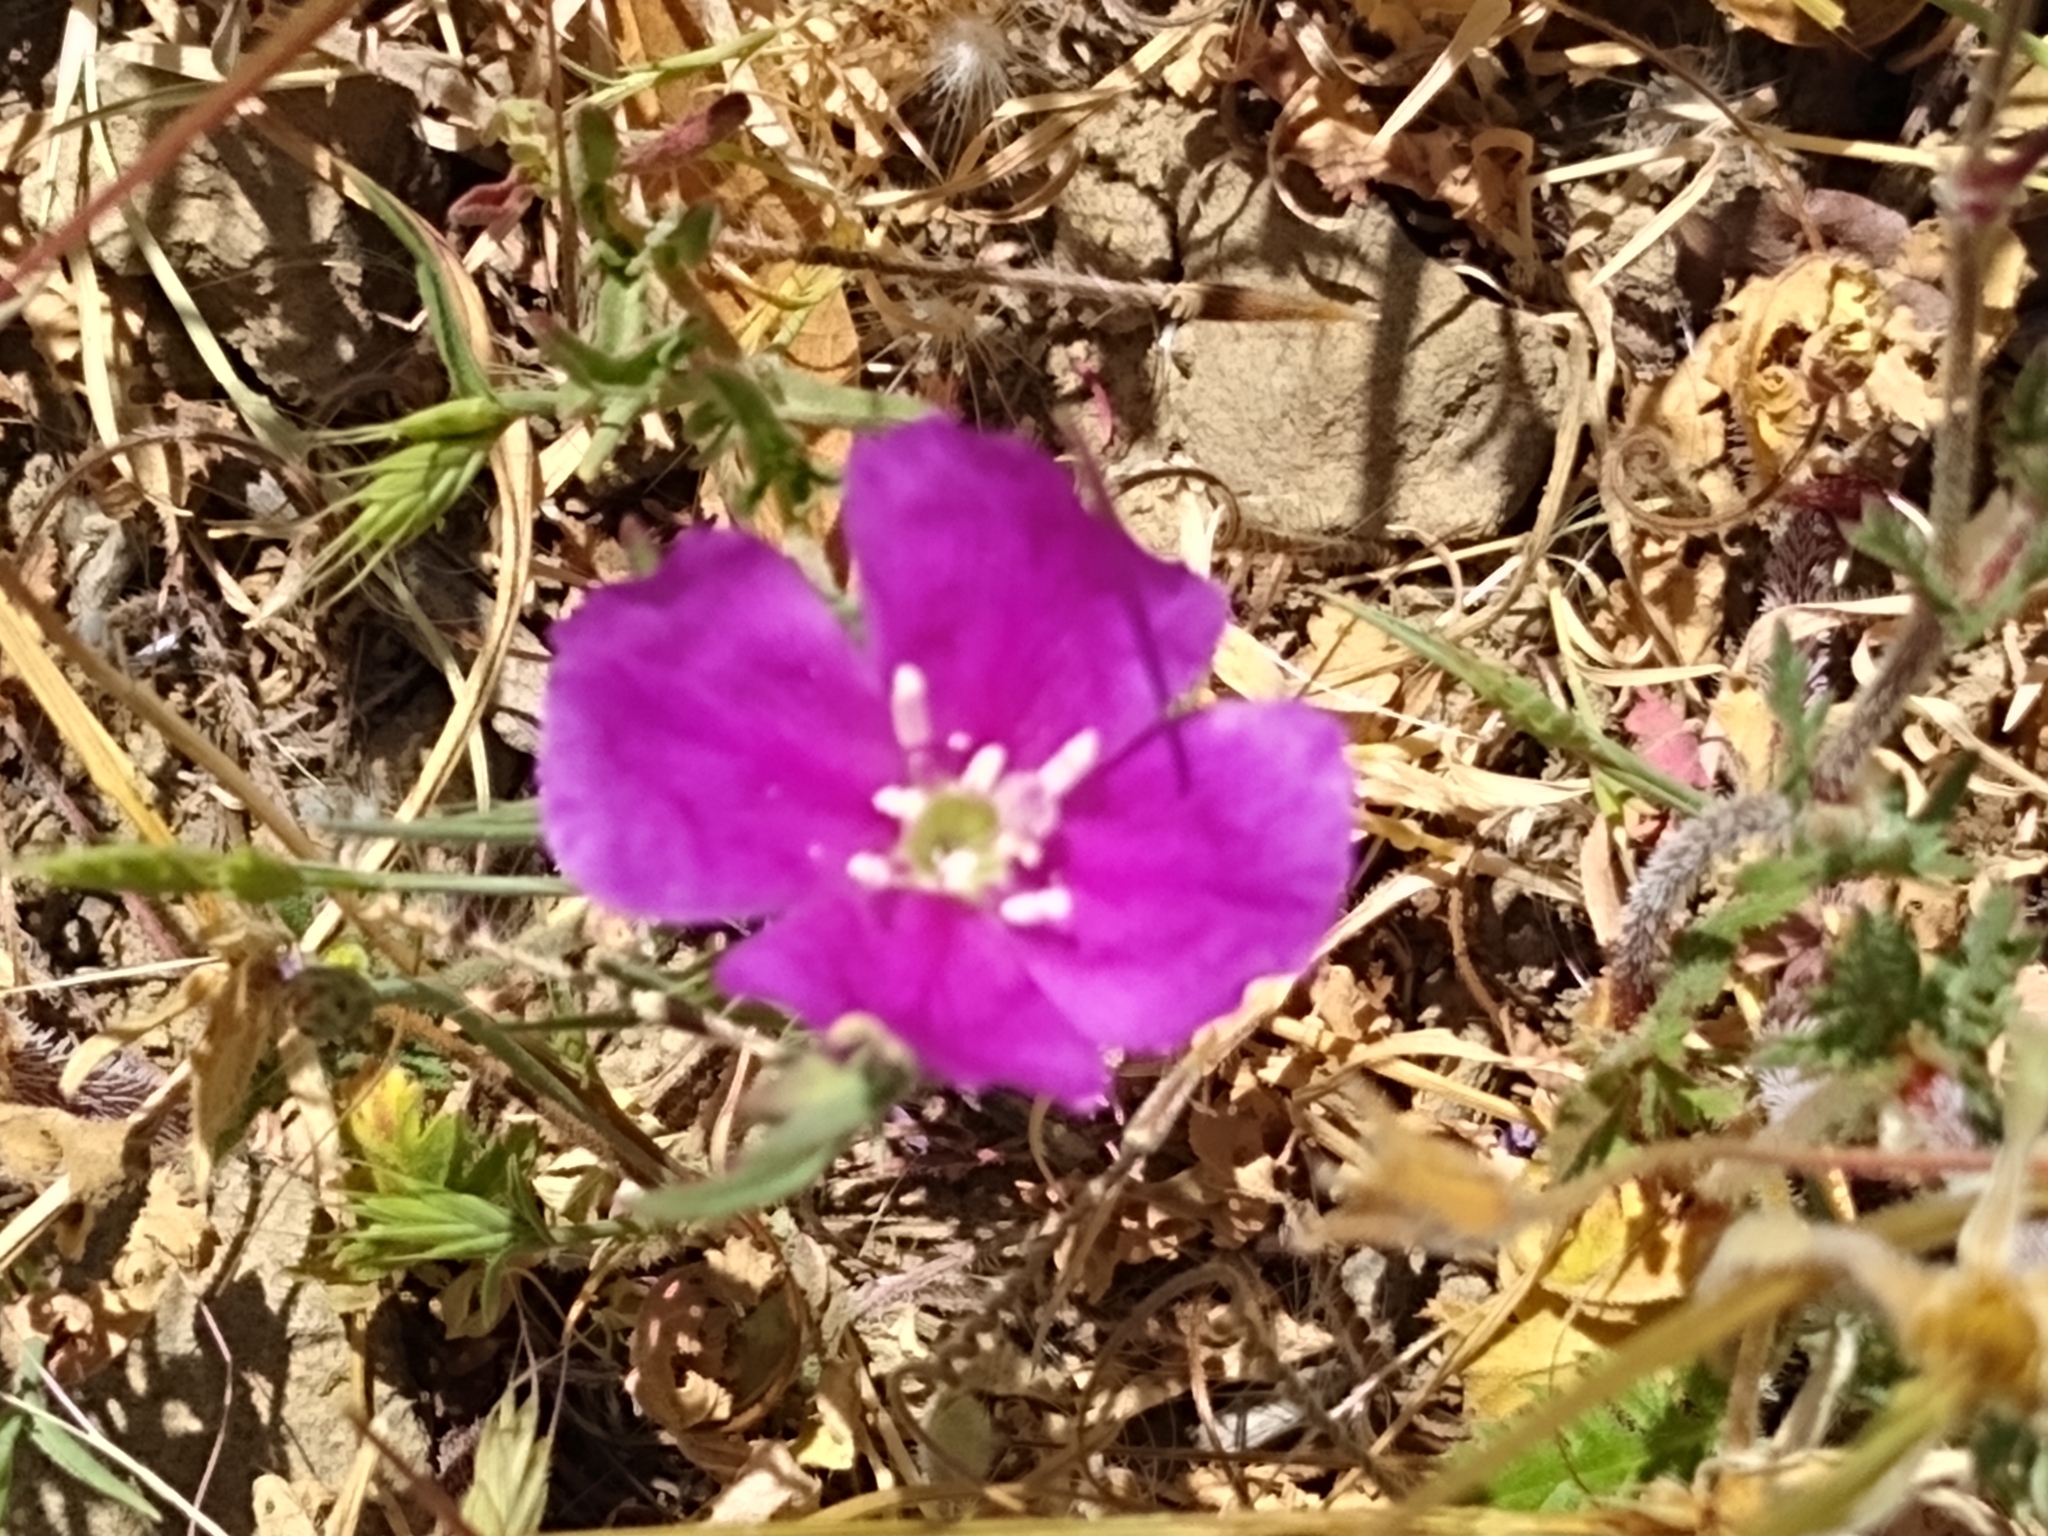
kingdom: Plantae
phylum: Tracheophyta
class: Magnoliopsida
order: Myrtales
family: Onagraceae
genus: Clarkia
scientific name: Clarkia purpurea
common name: Purple clarkia
